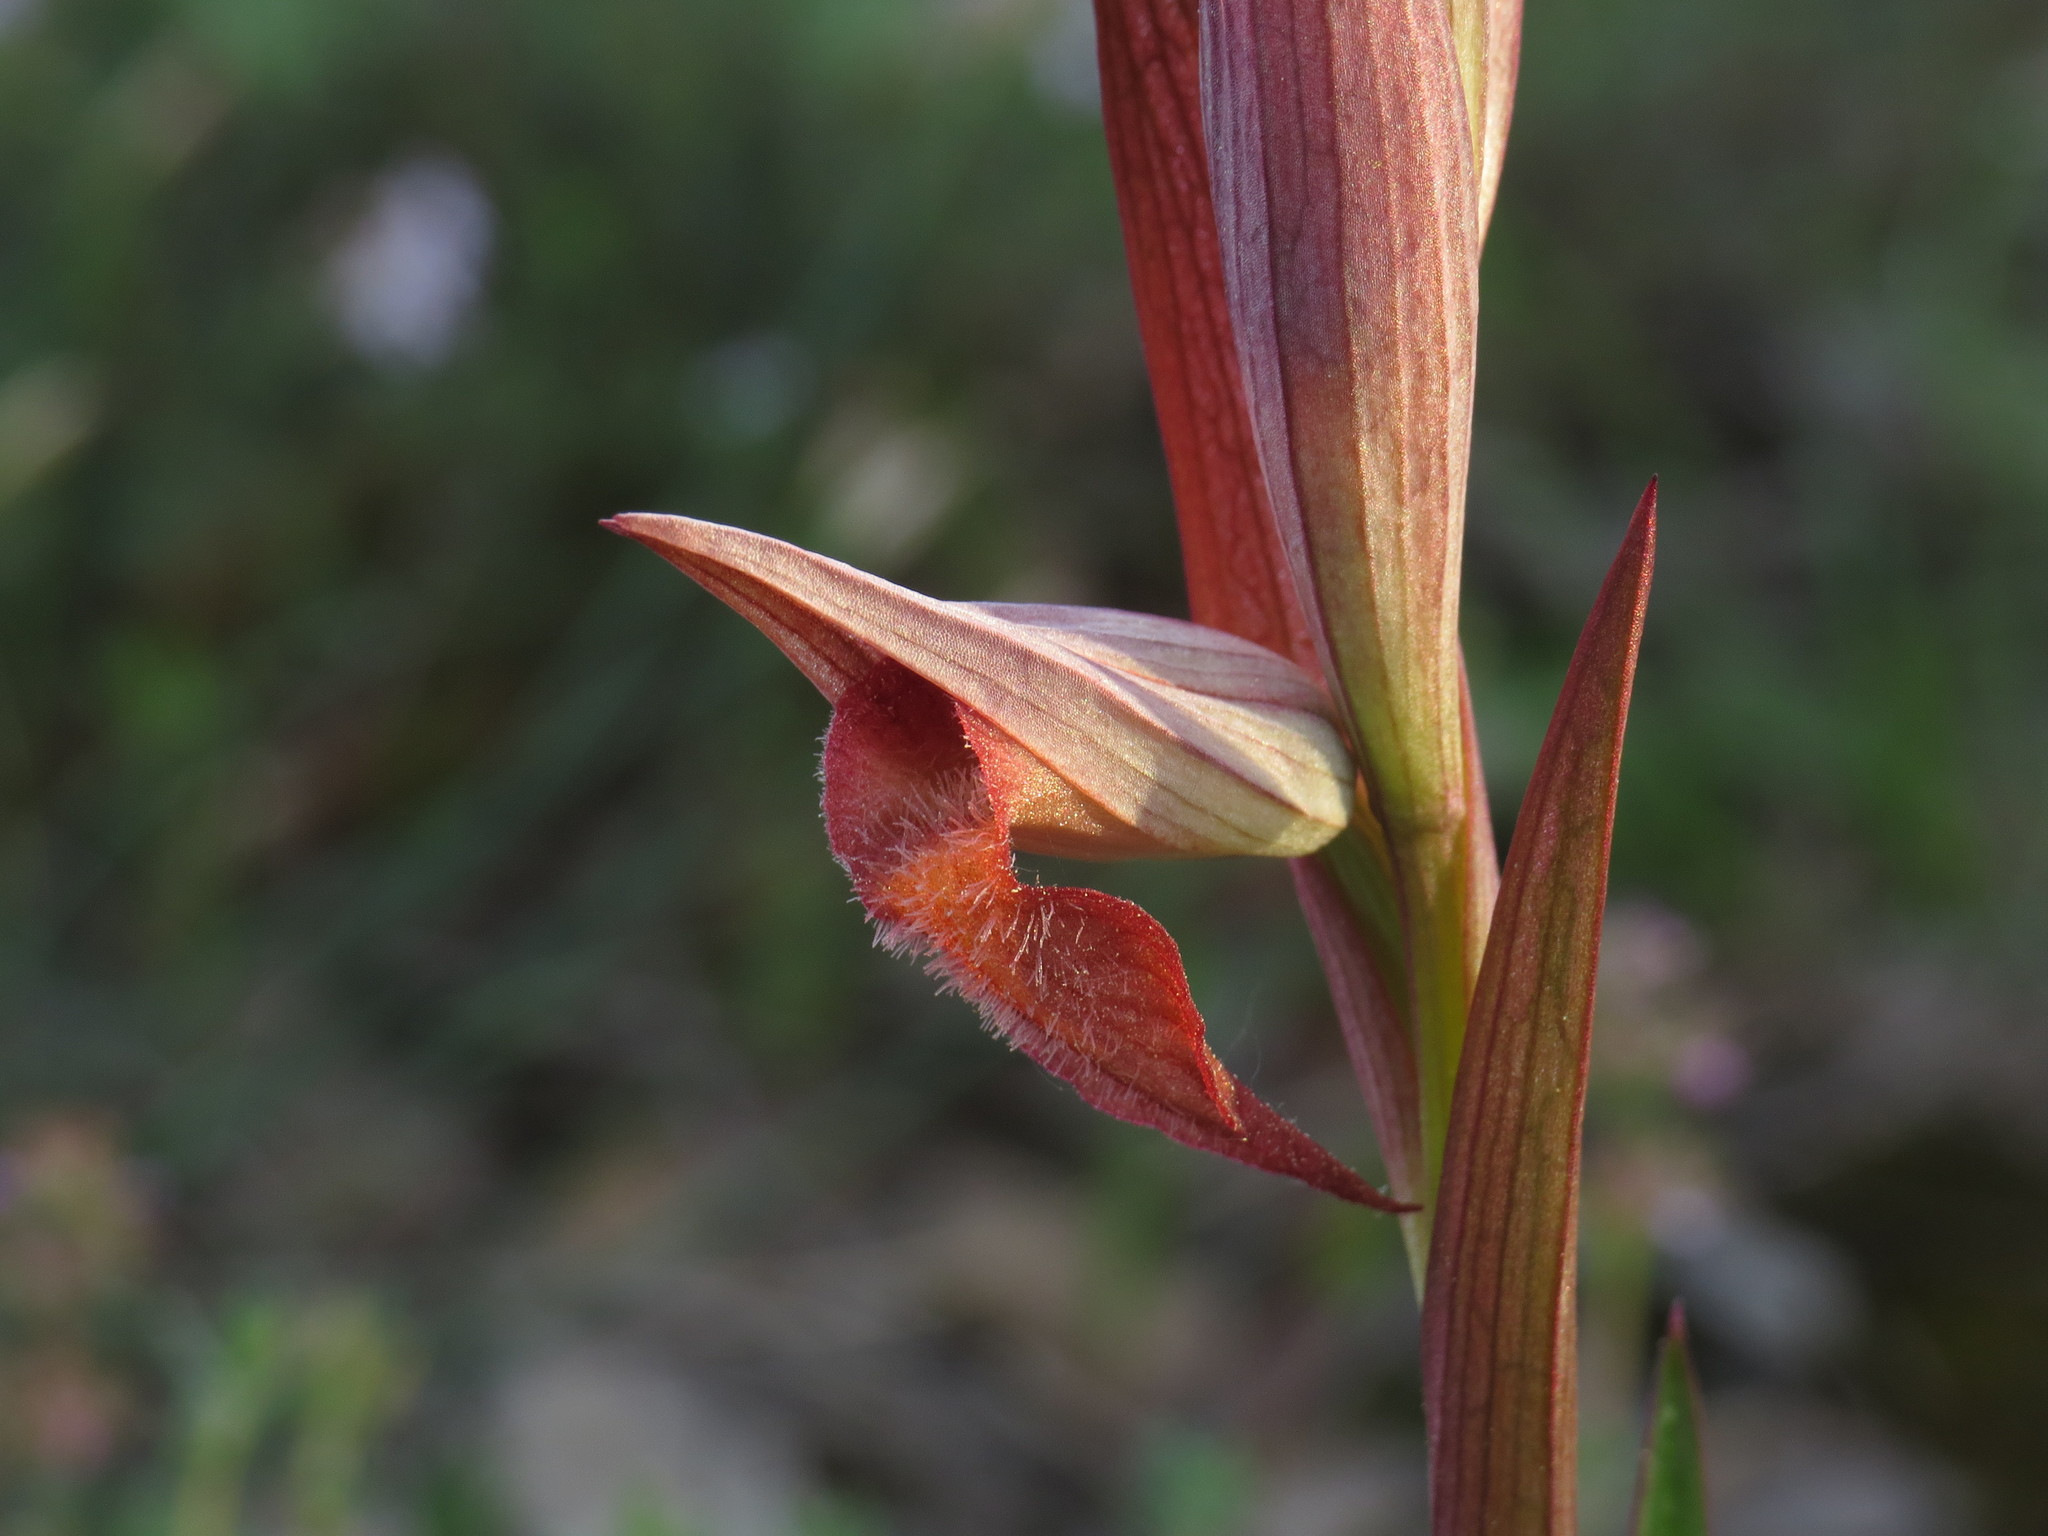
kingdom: Plantae
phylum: Tracheophyta
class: Liliopsida
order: Asparagales
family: Orchidaceae
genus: Serapias
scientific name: Serapias vomeracea
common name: Long-lipped tongue-orchid
